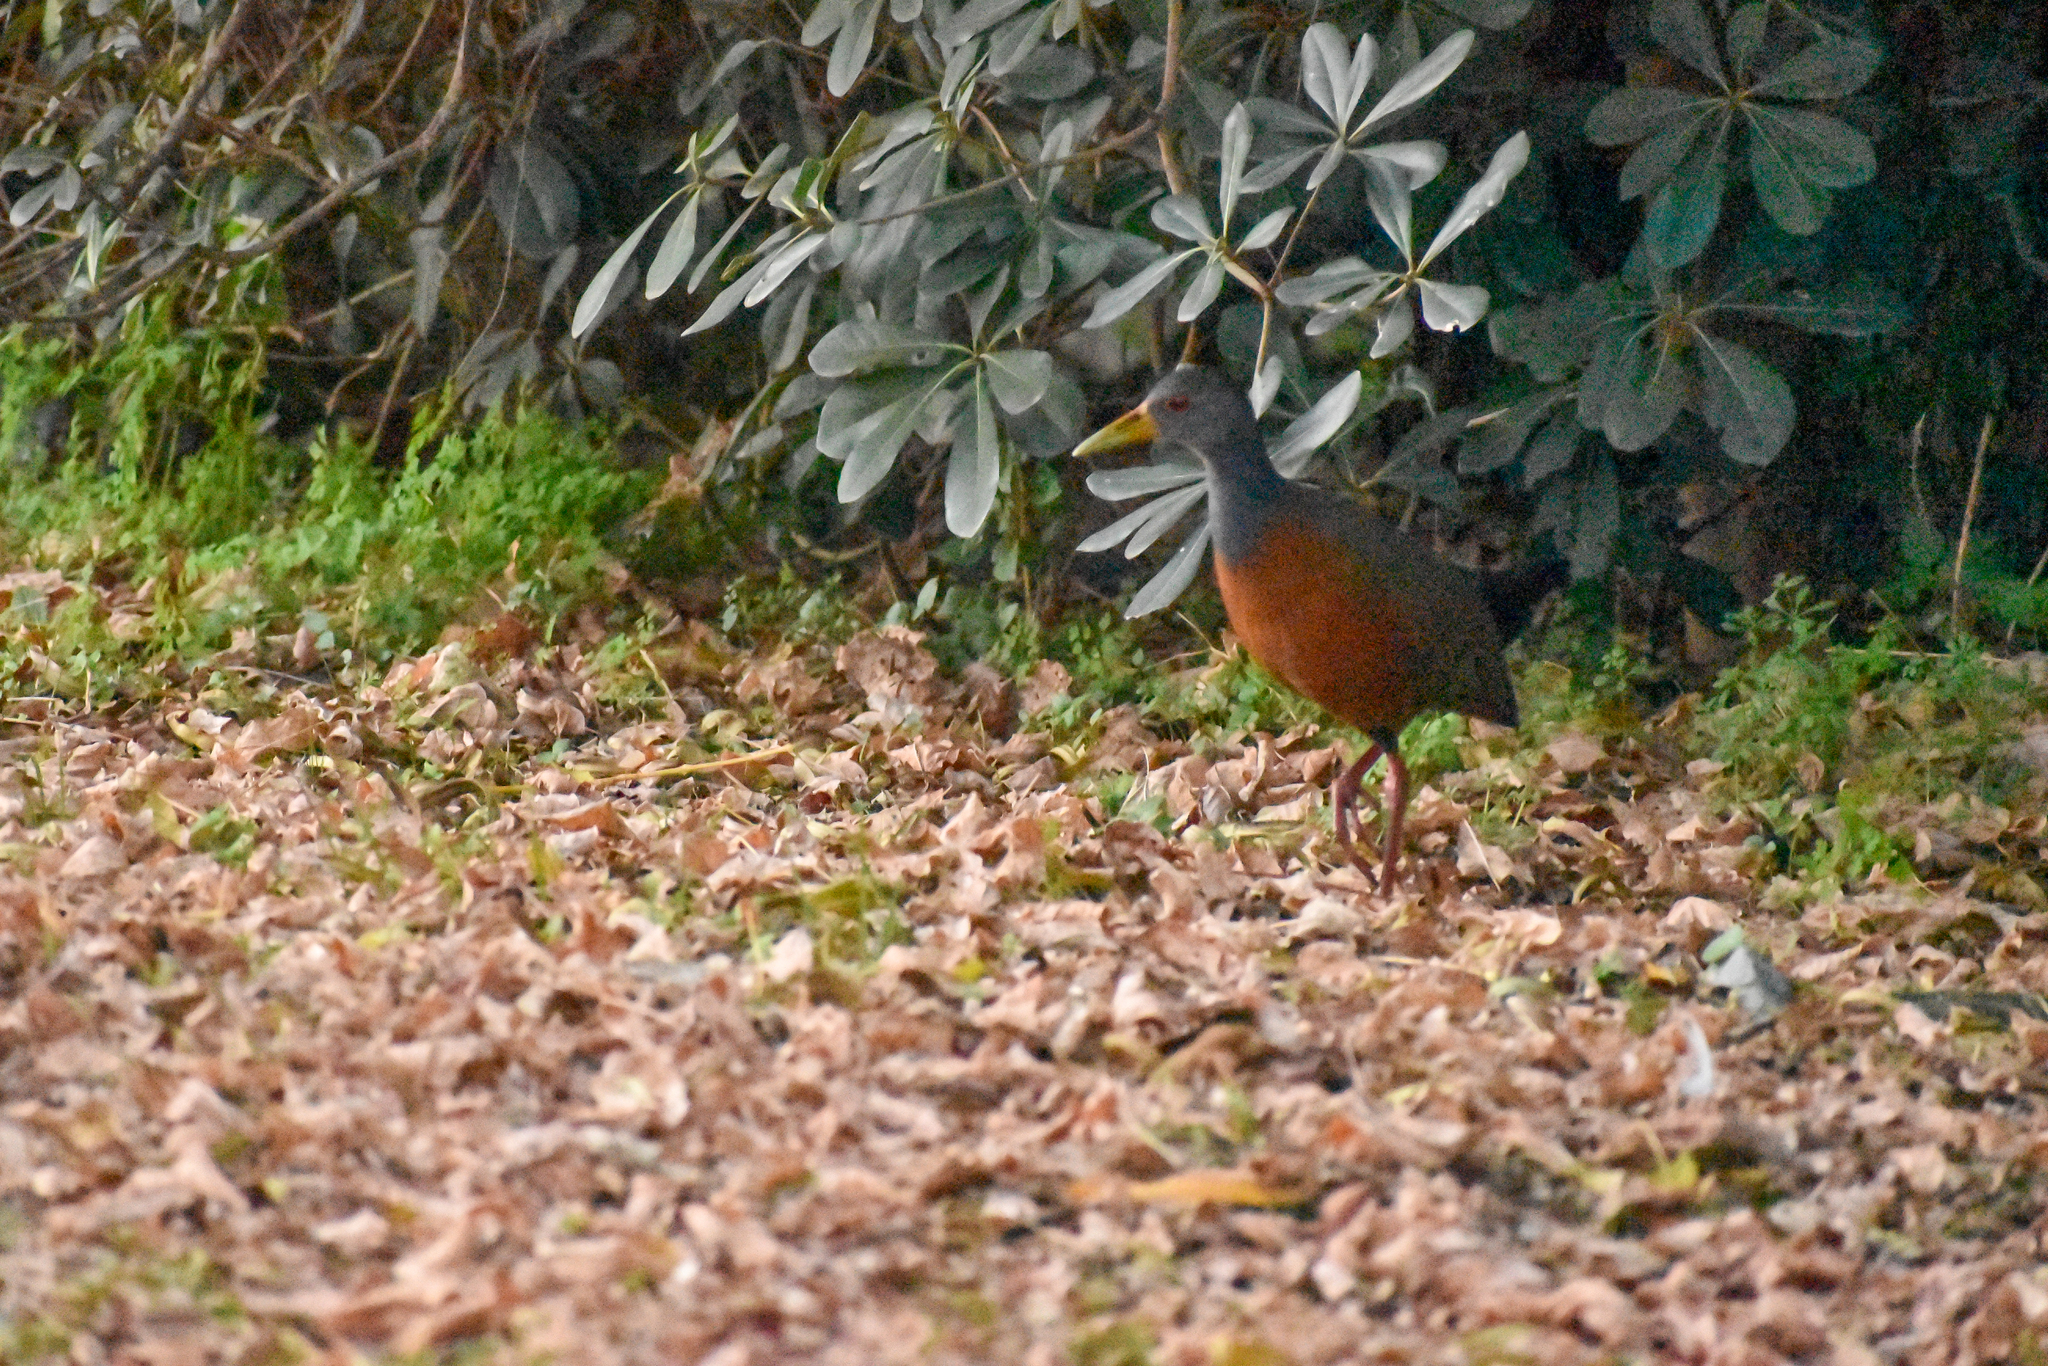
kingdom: Animalia
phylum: Chordata
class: Aves
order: Gruiformes
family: Rallidae
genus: Aramides
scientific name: Aramides cajanea
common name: Gray-necked wood-rail
